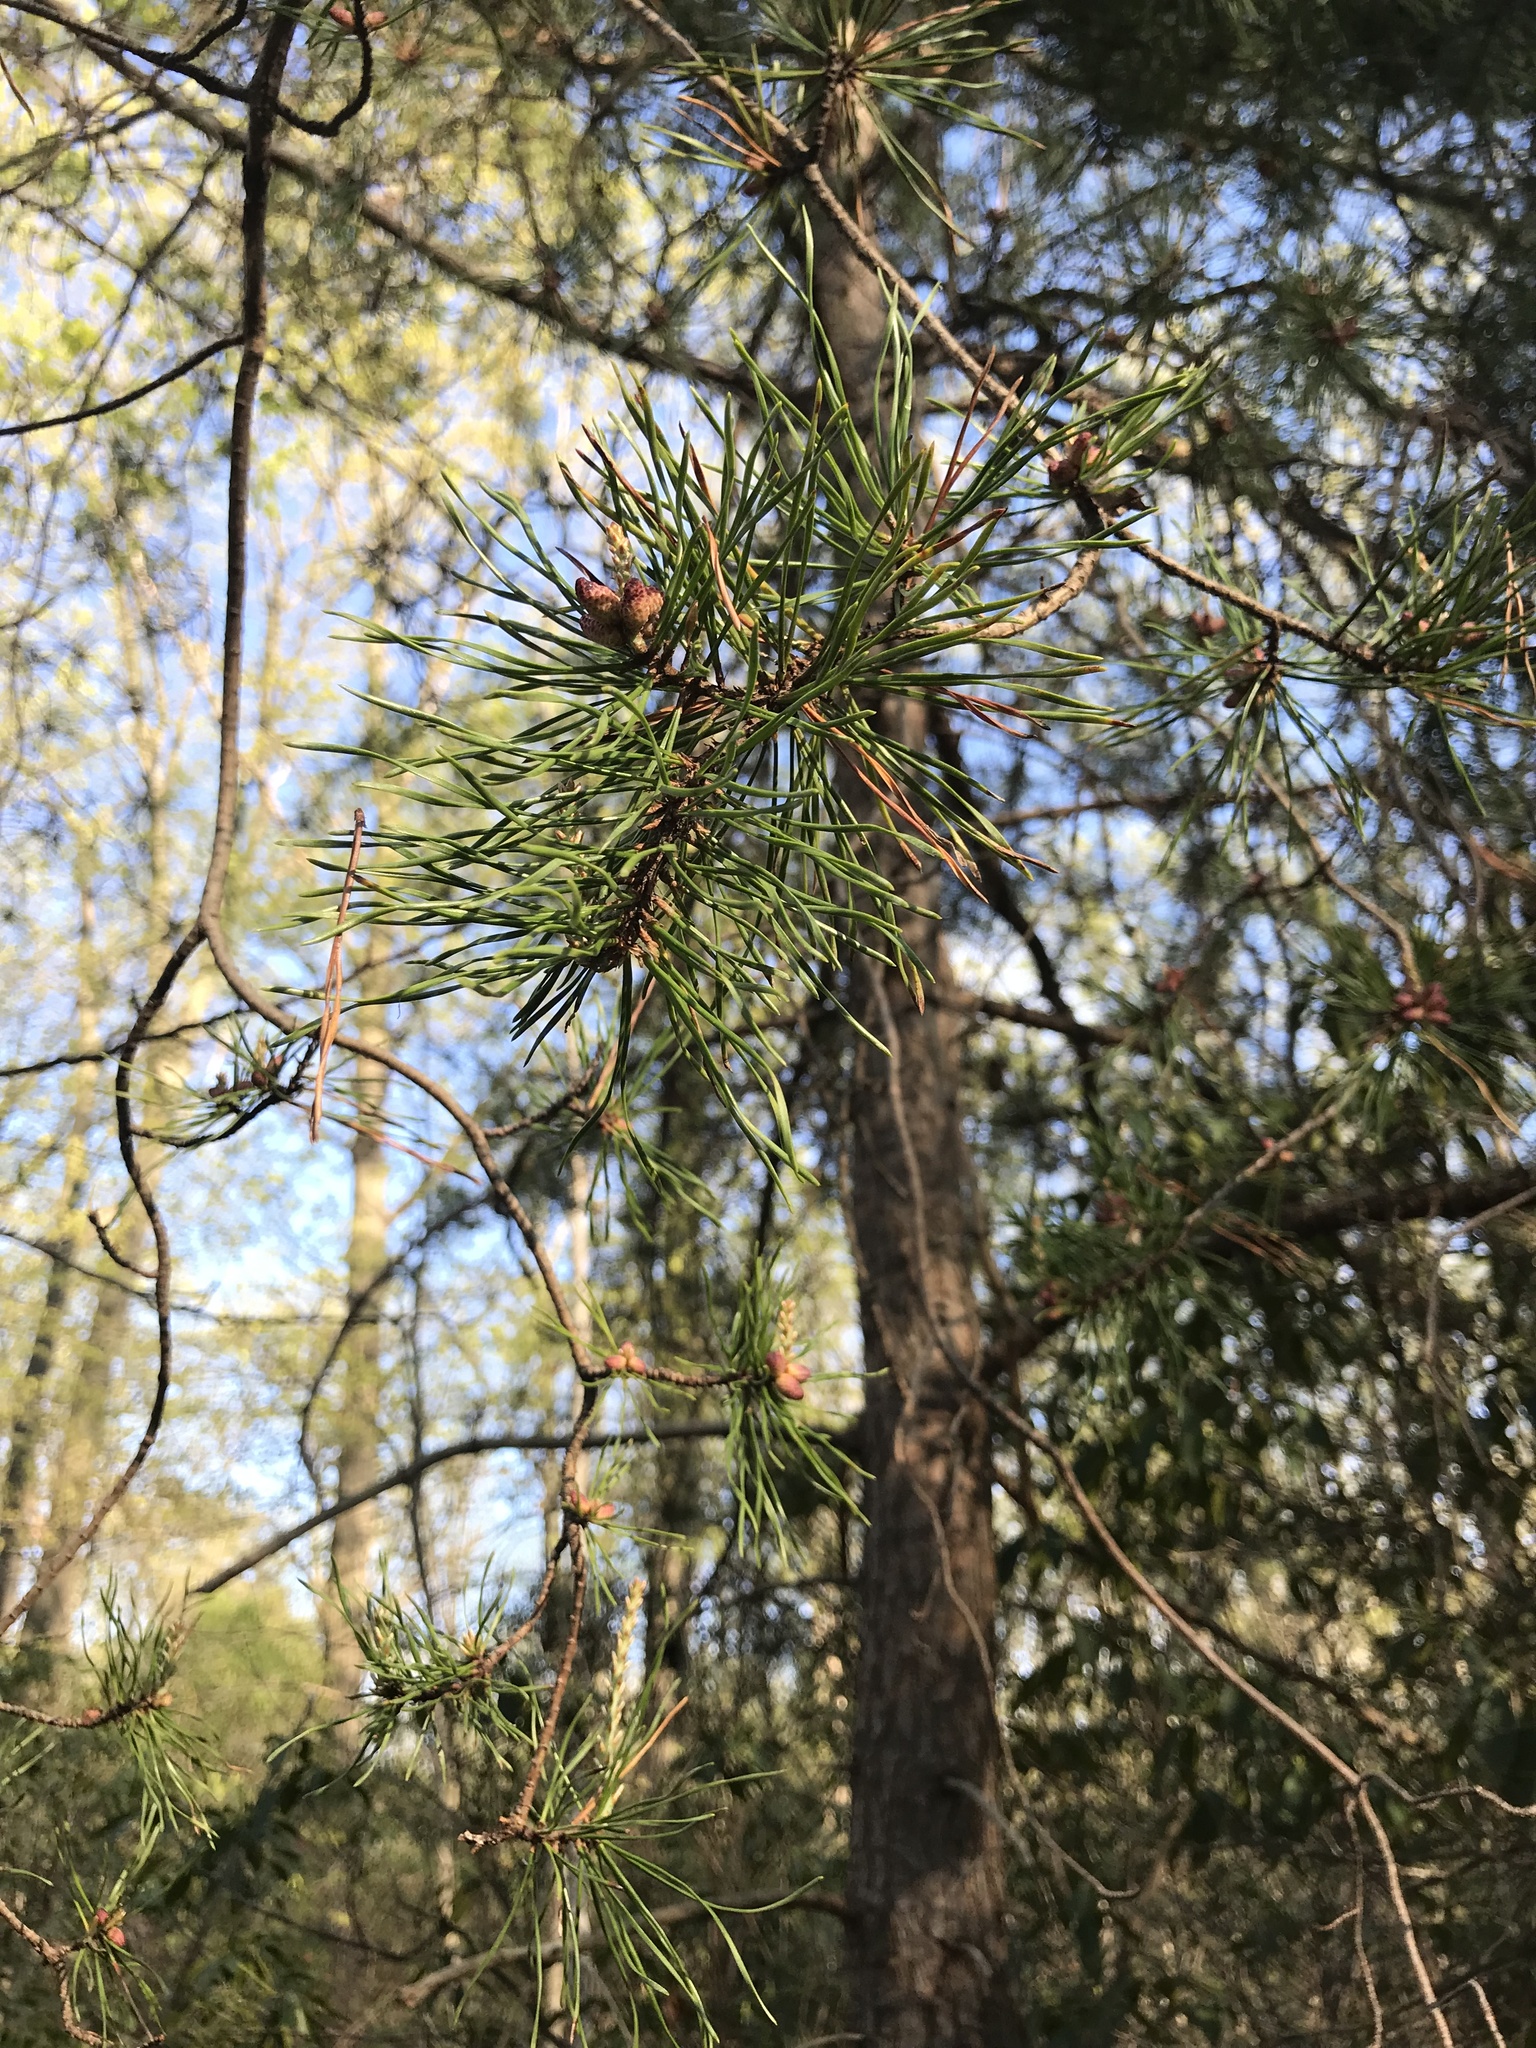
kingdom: Plantae
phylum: Tracheophyta
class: Pinopsida
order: Pinales
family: Pinaceae
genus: Pinus
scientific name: Pinus virginiana
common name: Scrub pine
